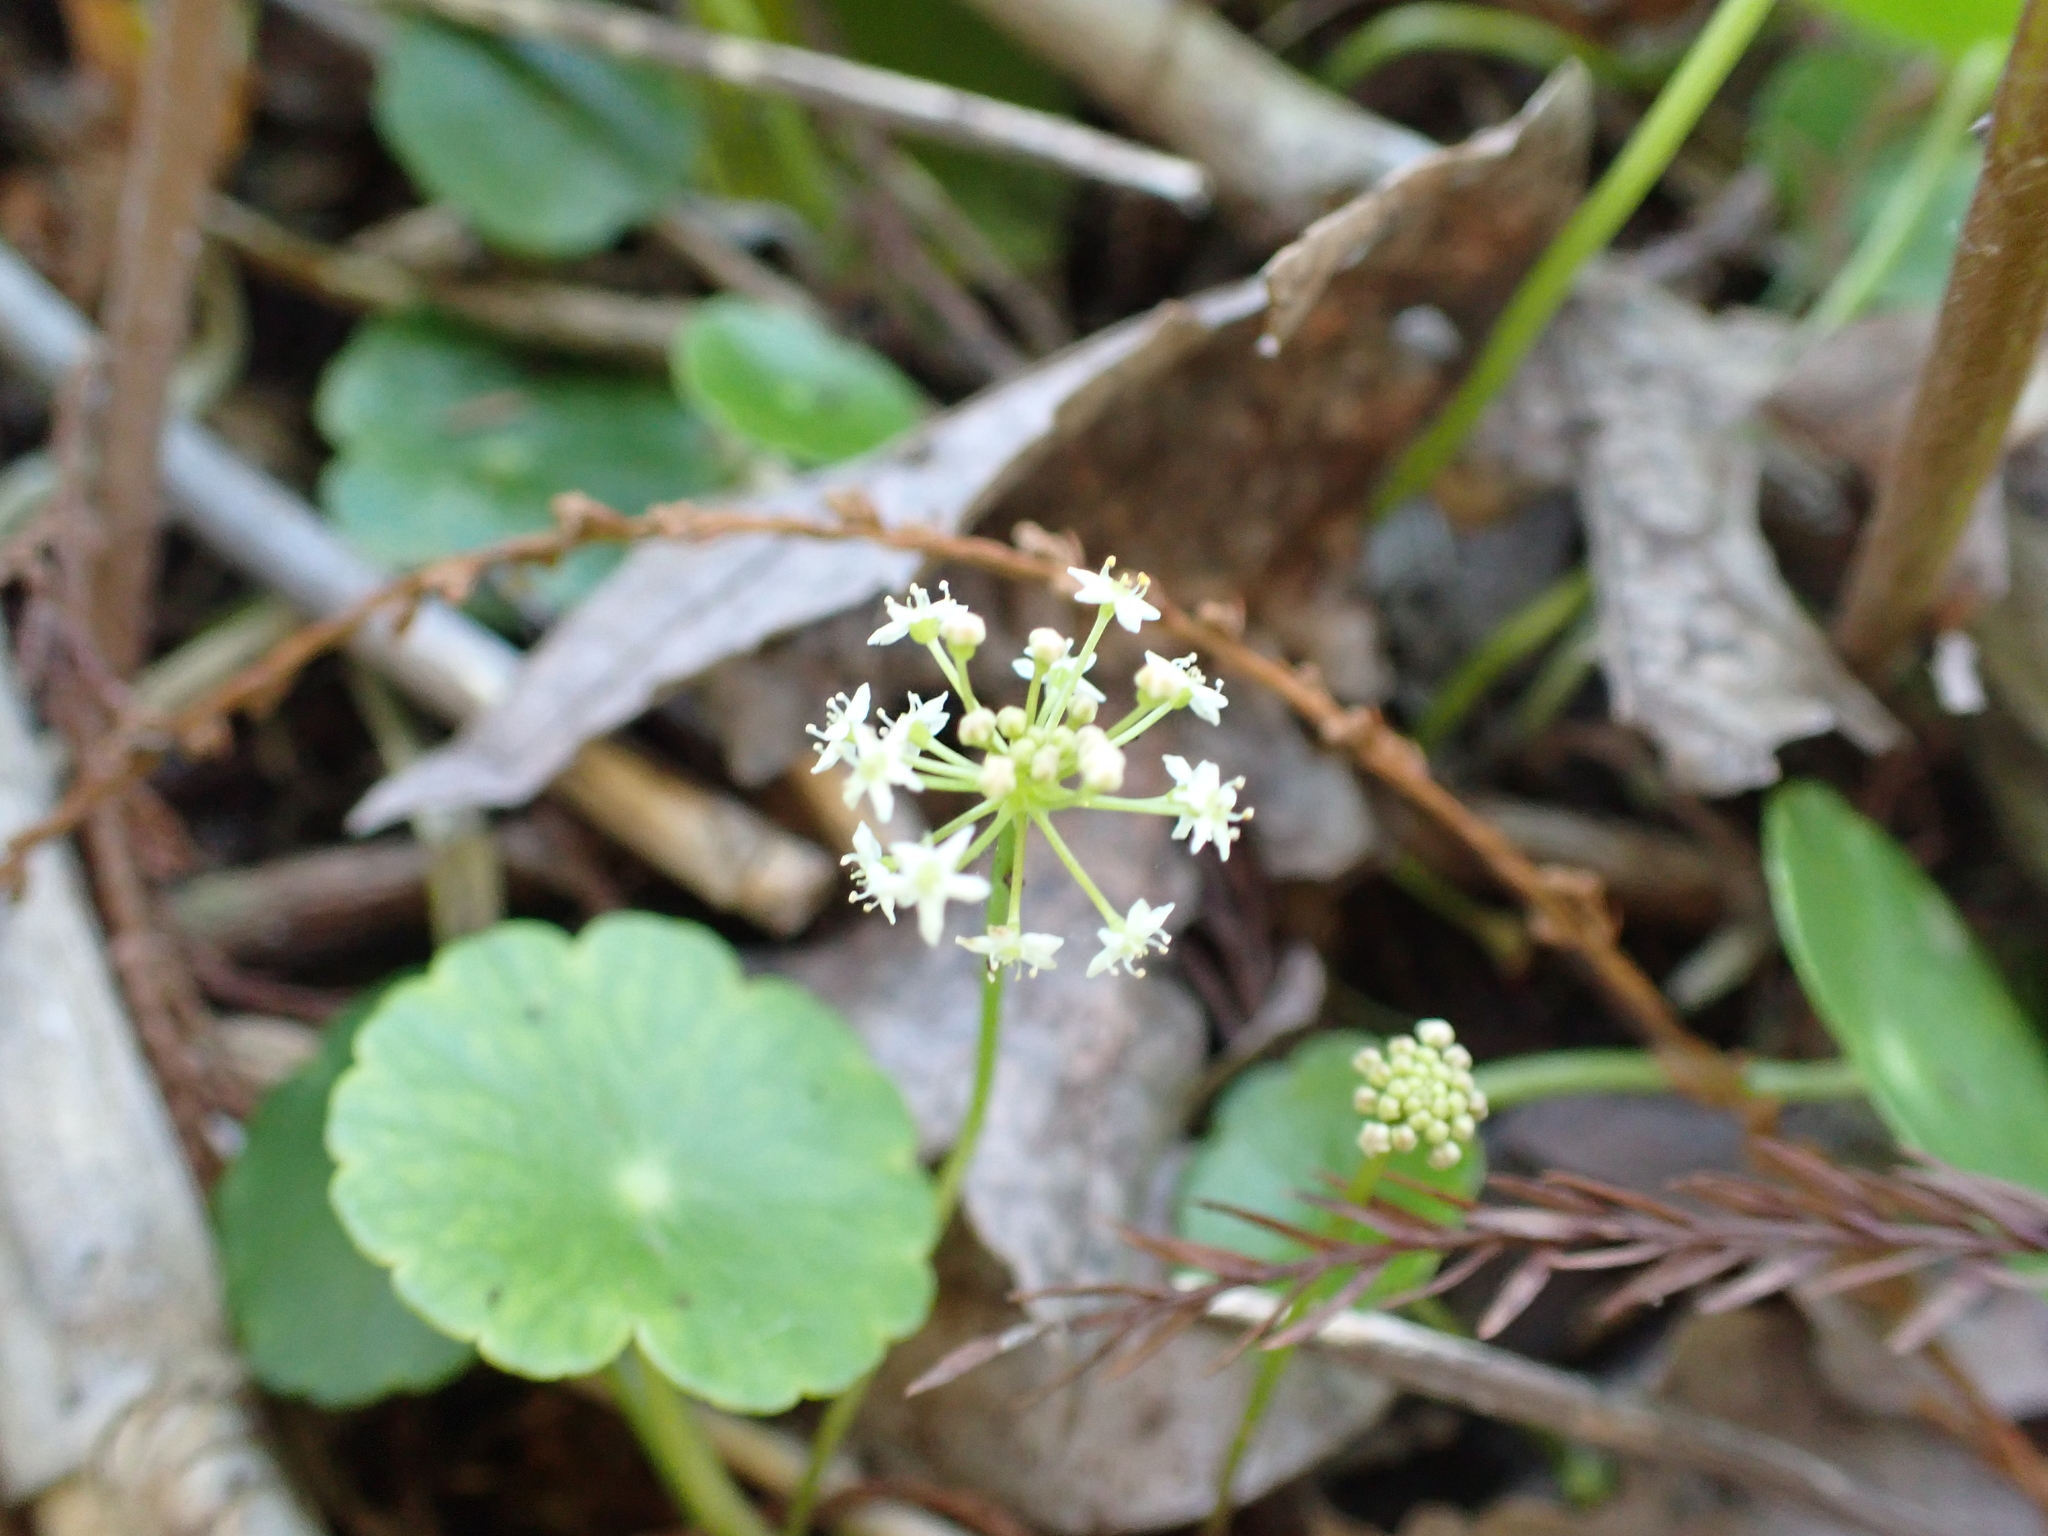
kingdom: Plantae
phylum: Tracheophyta
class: Magnoliopsida
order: Apiales
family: Araliaceae
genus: Hydrocotyle
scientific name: Hydrocotyle umbellata
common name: Water pennywort
